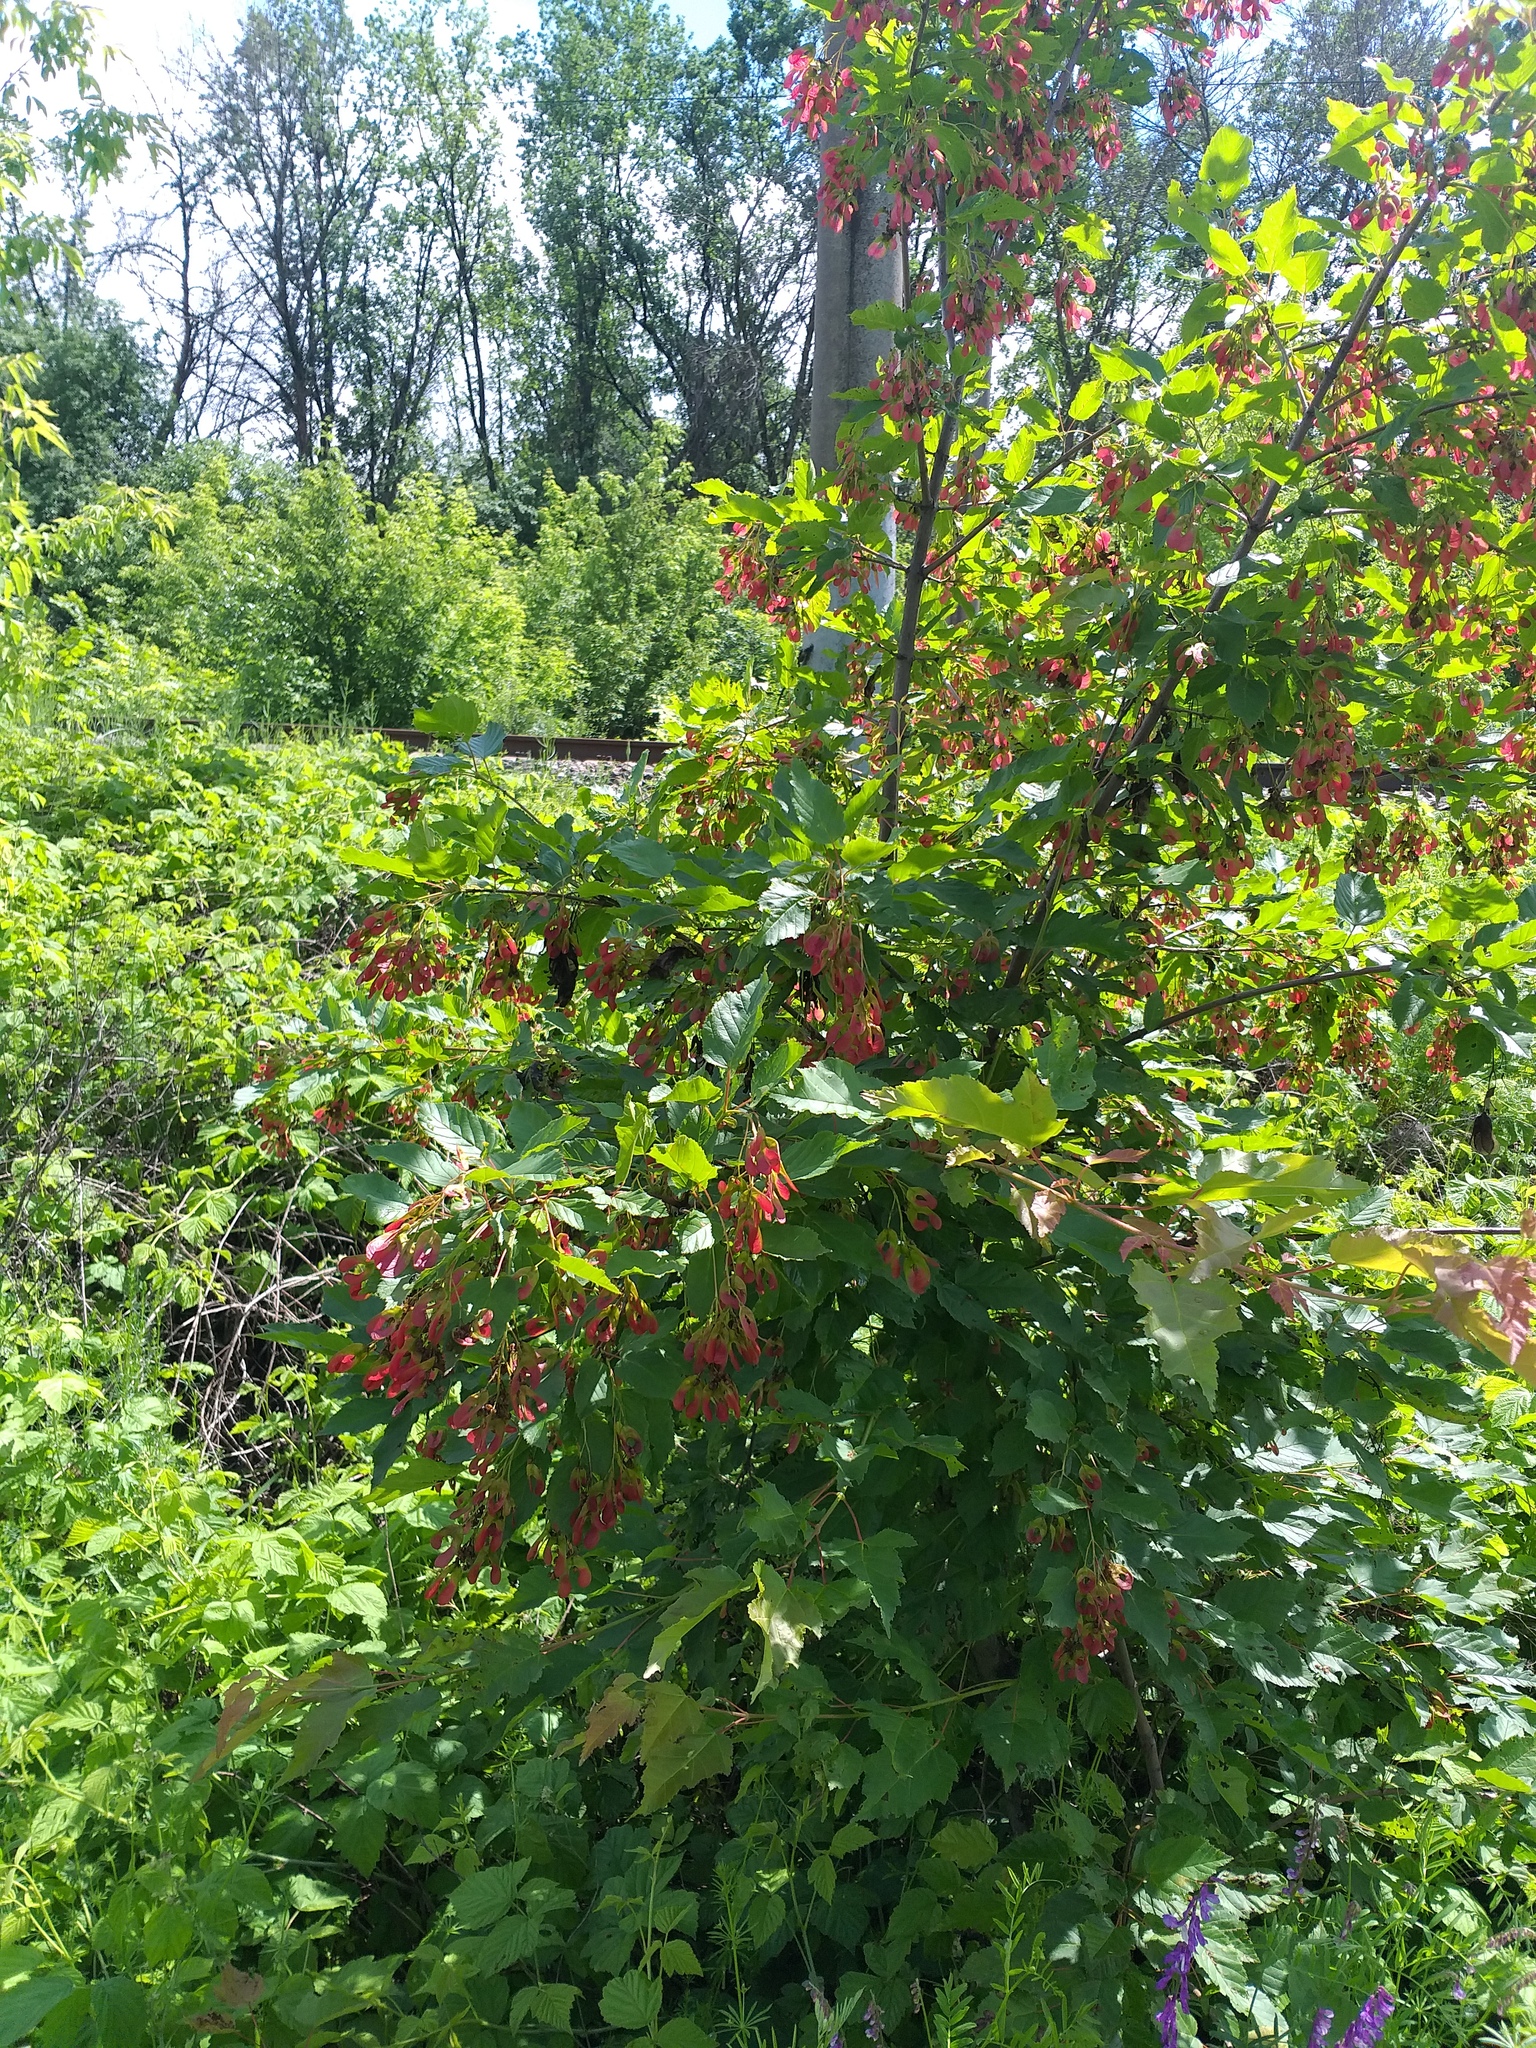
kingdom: Plantae
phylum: Tracheophyta
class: Magnoliopsida
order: Sapindales
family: Sapindaceae
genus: Acer
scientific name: Acer tataricum
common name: Tartar maple
